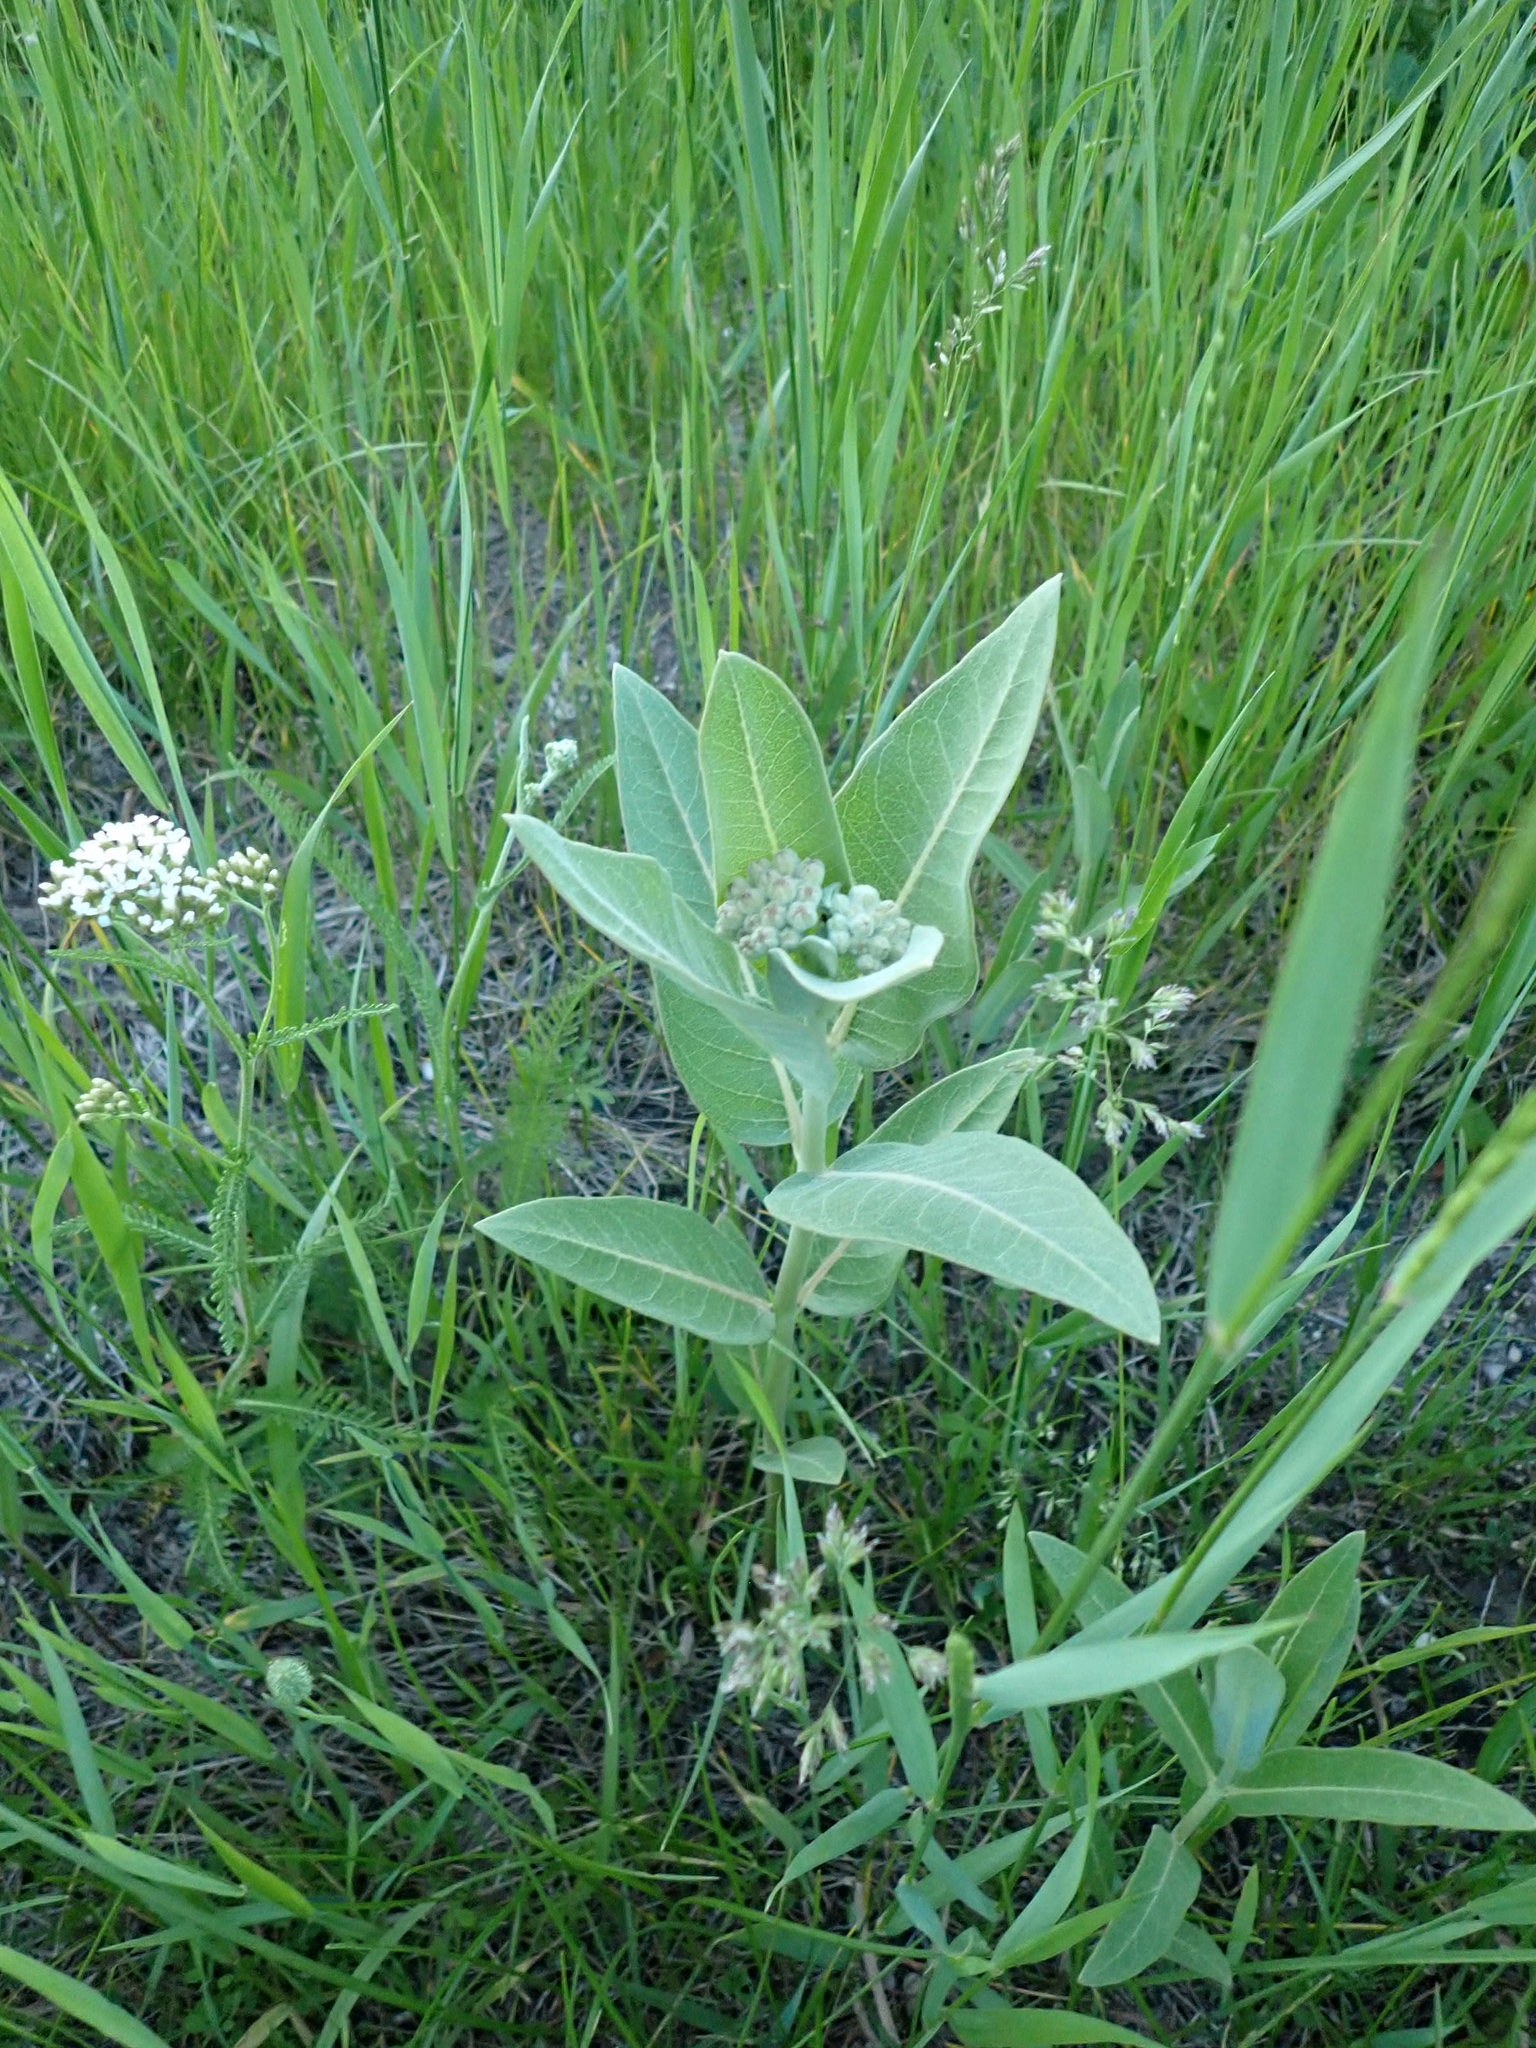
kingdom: Plantae
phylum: Tracheophyta
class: Magnoliopsida
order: Gentianales
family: Apocynaceae
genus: Asclepias
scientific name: Asclepias speciosa
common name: Showy milkweed
